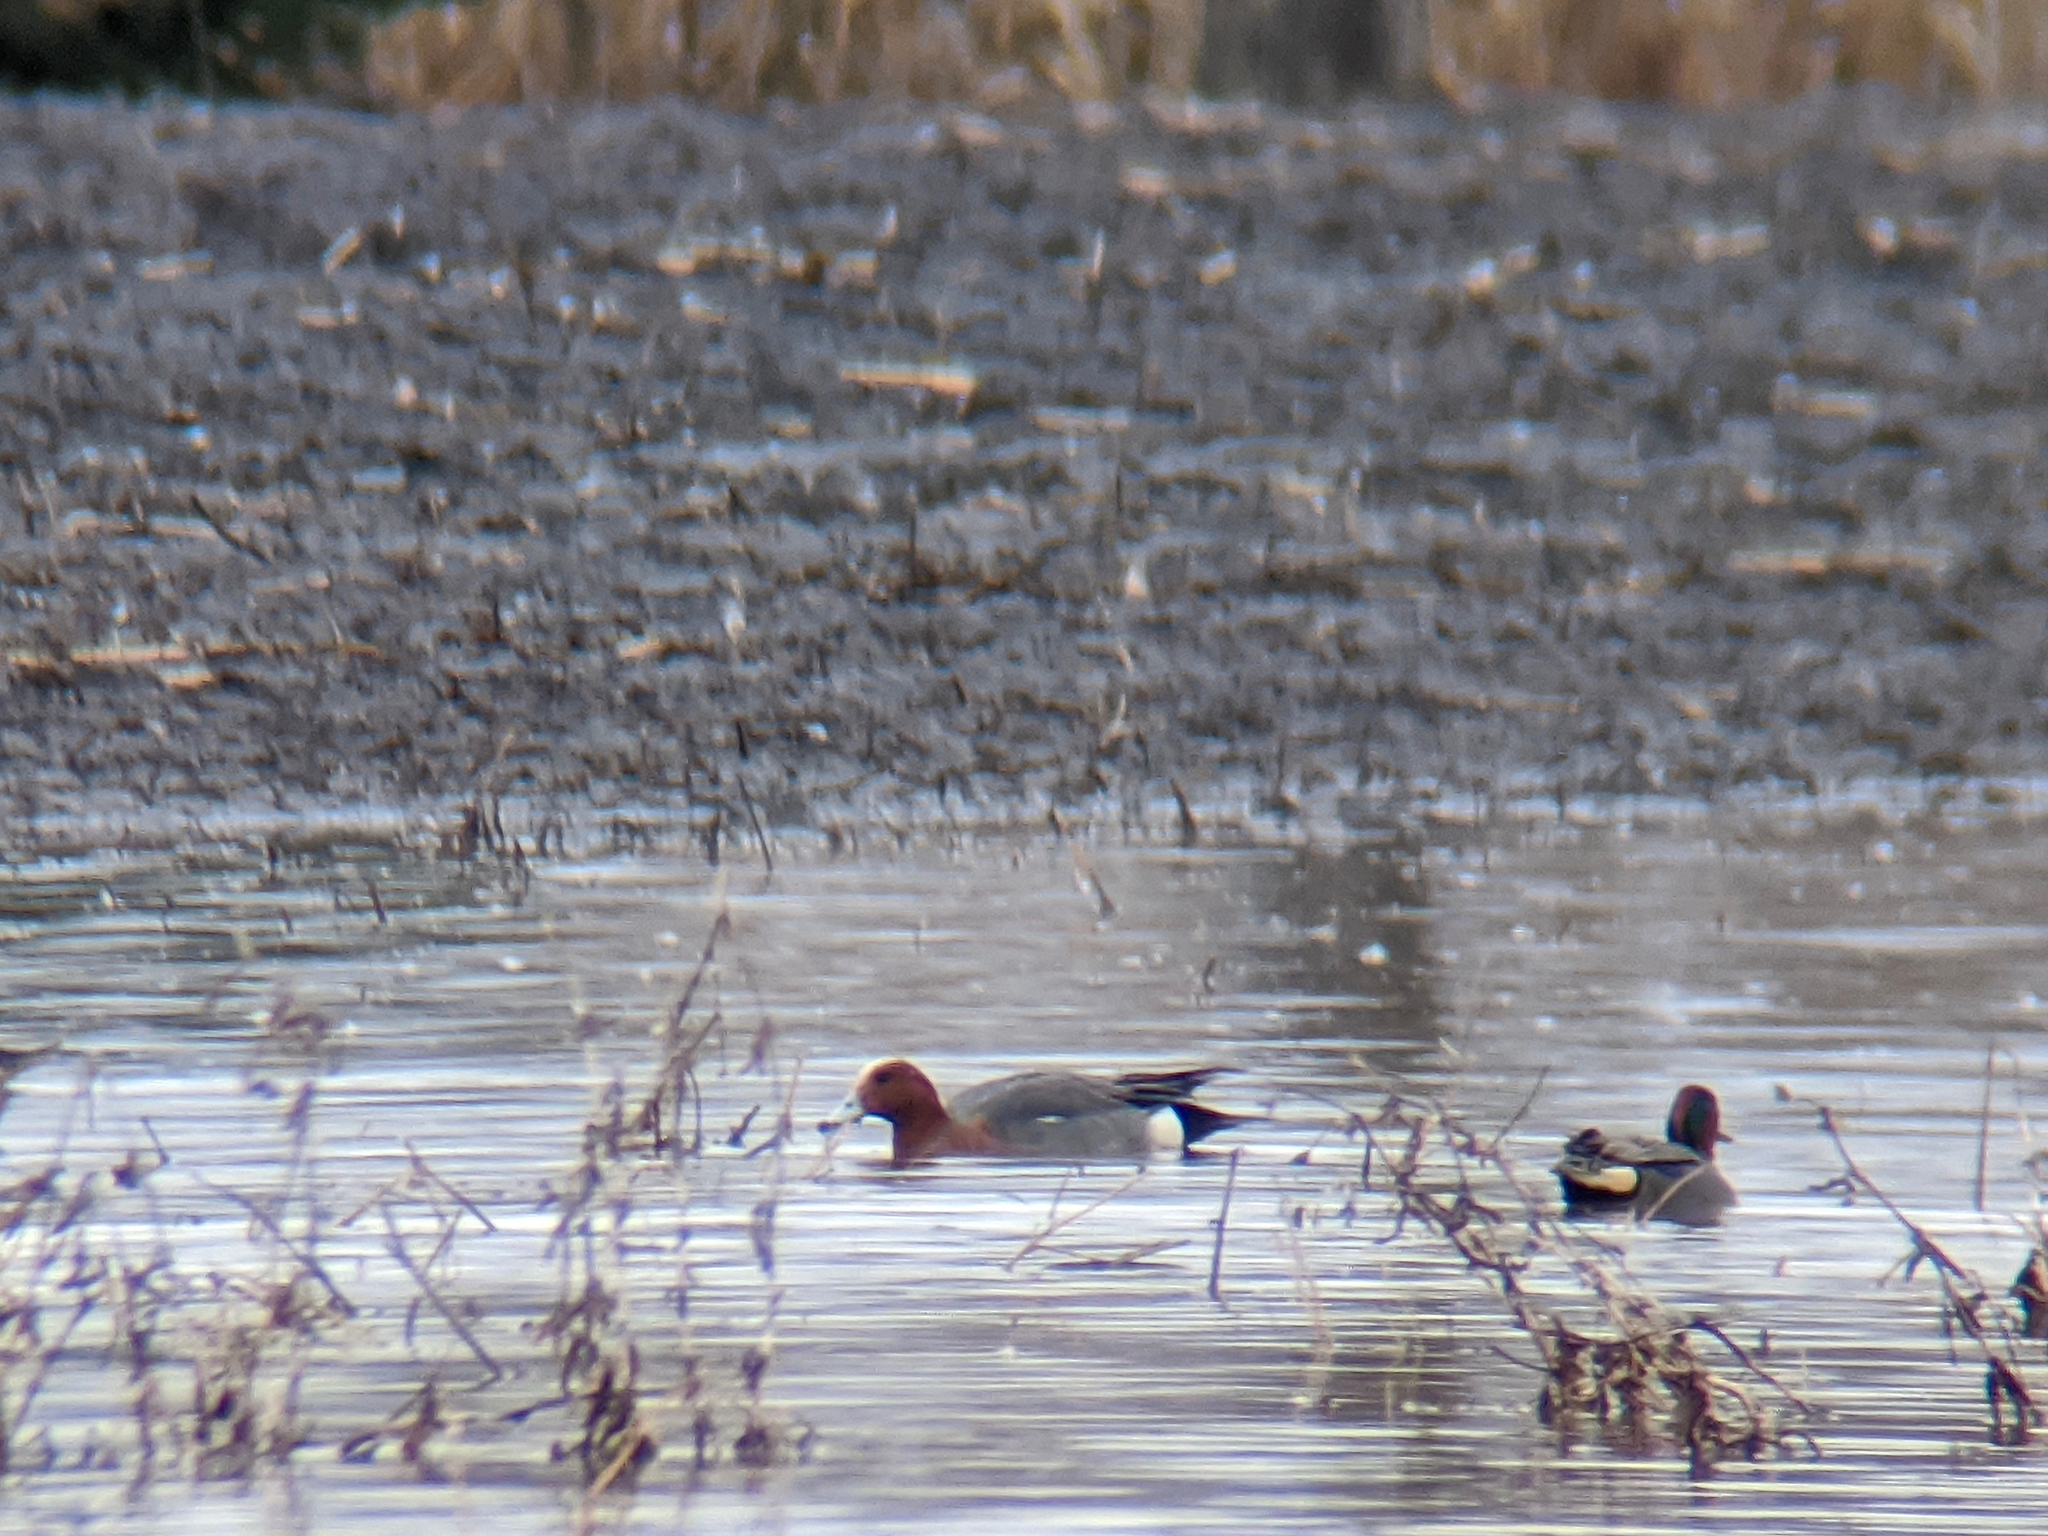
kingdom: Animalia
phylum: Chordata
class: Aves
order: Anseriformes
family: Anatidae
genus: Mareca
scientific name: Mareca penelope
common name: Eurasian wigeon
